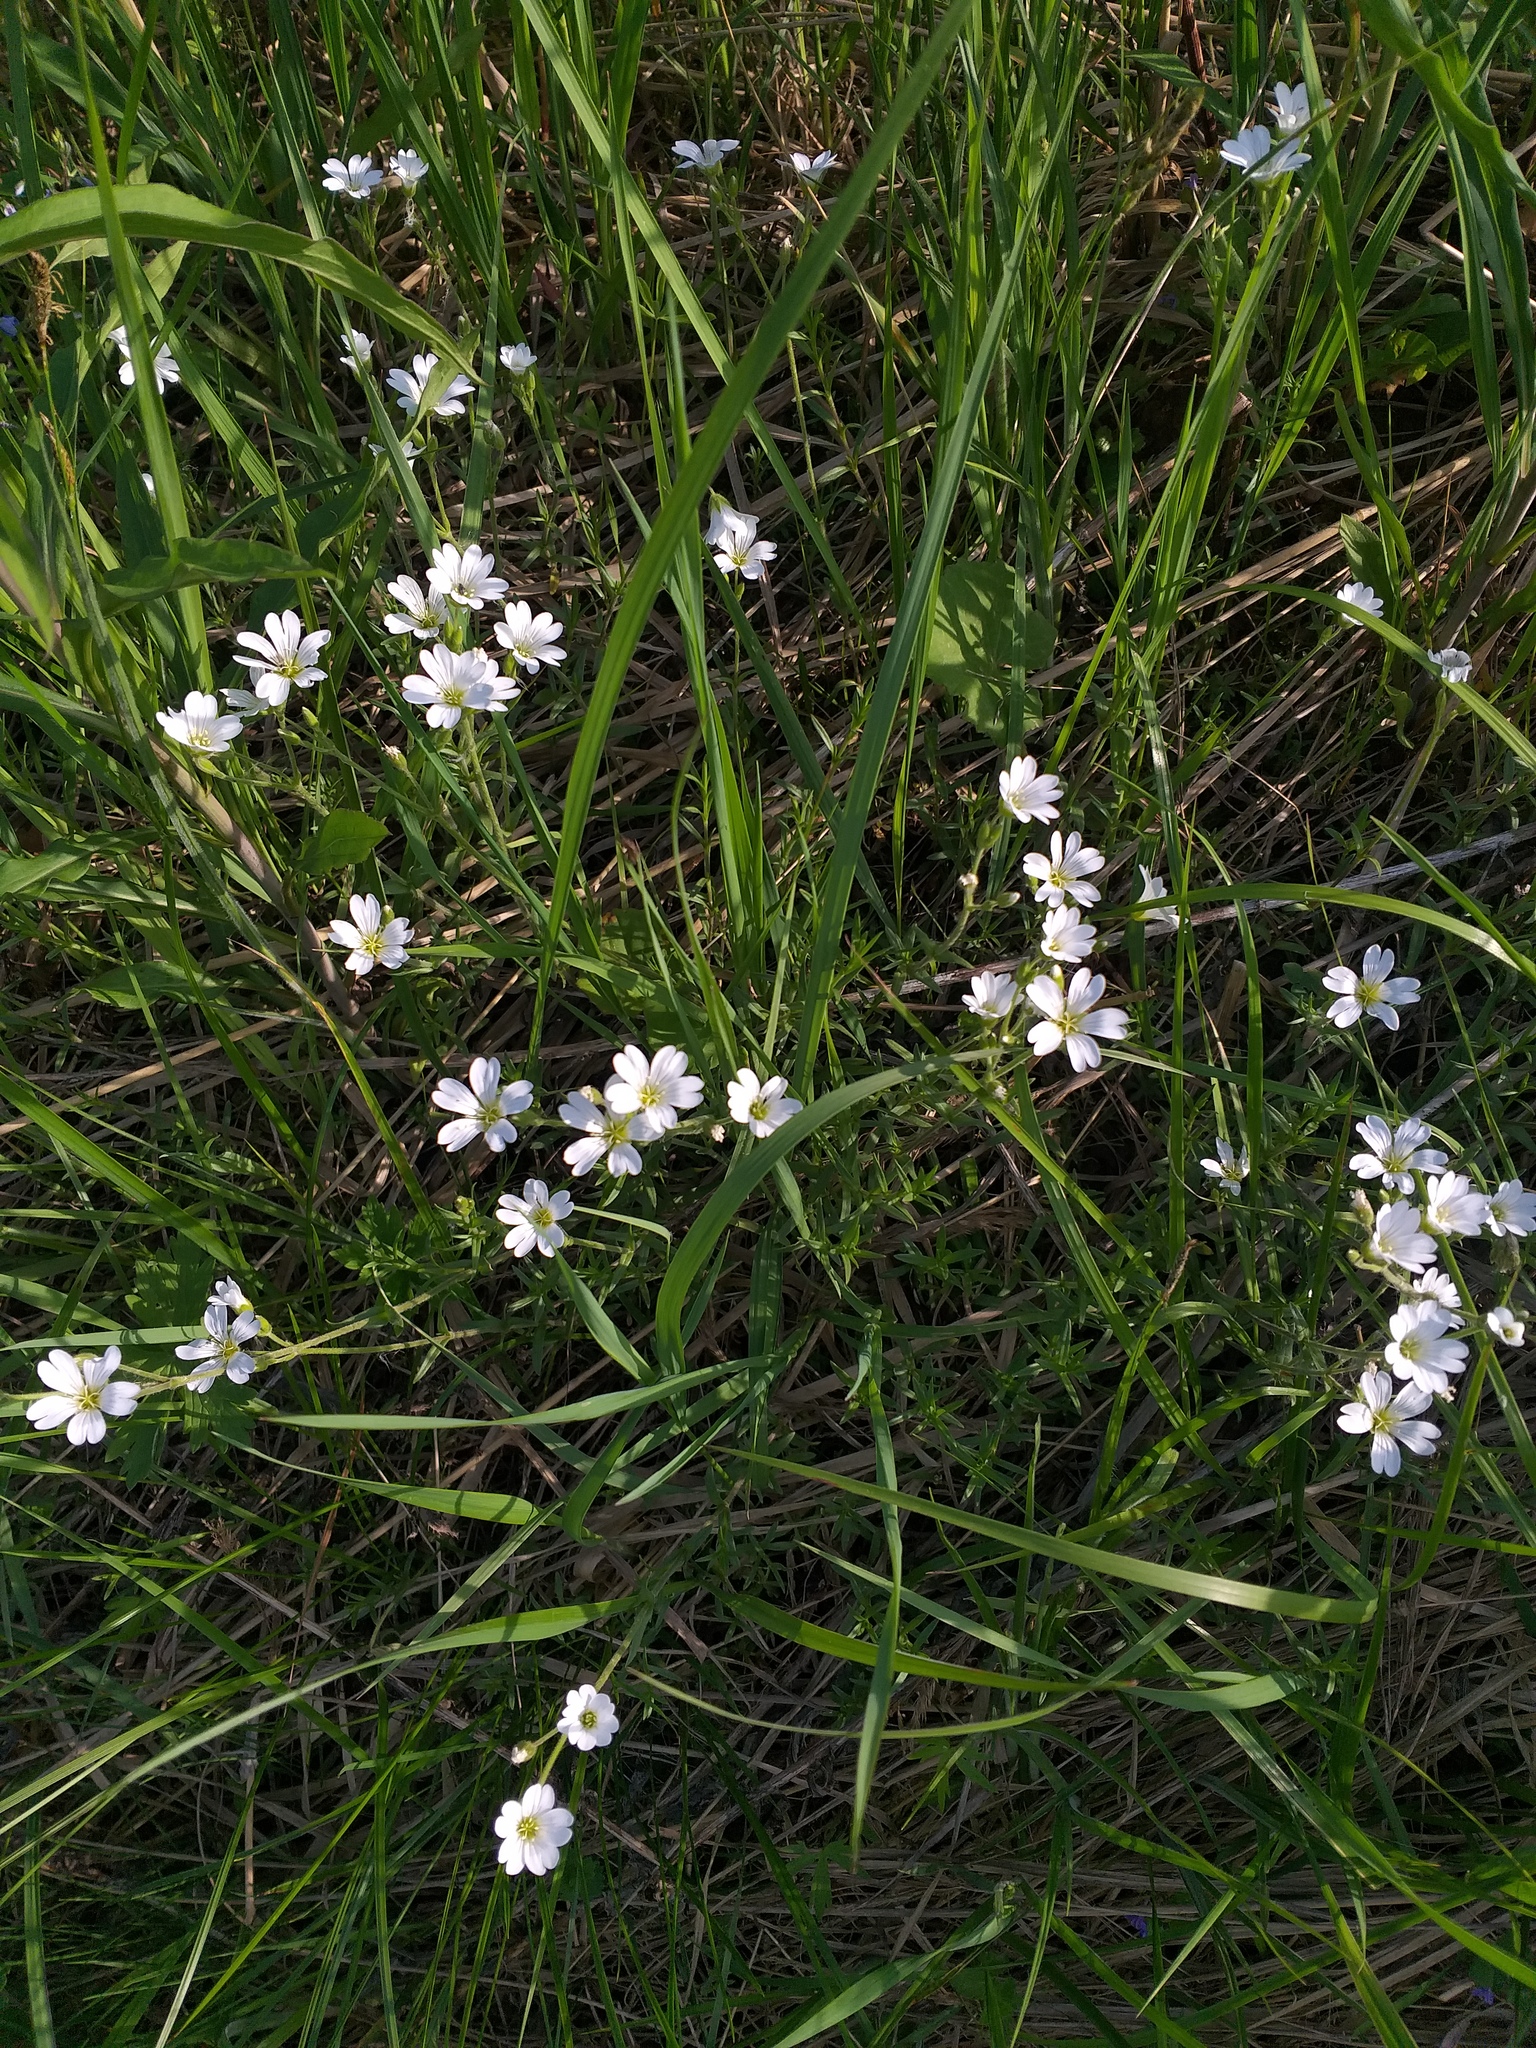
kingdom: Plantae
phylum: Tracheophyta
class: Magnoliopsida
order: Caryophyllales
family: Caryophyllaceae
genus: Cerastium
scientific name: Cerastium arvense
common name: Field mouse-ear
